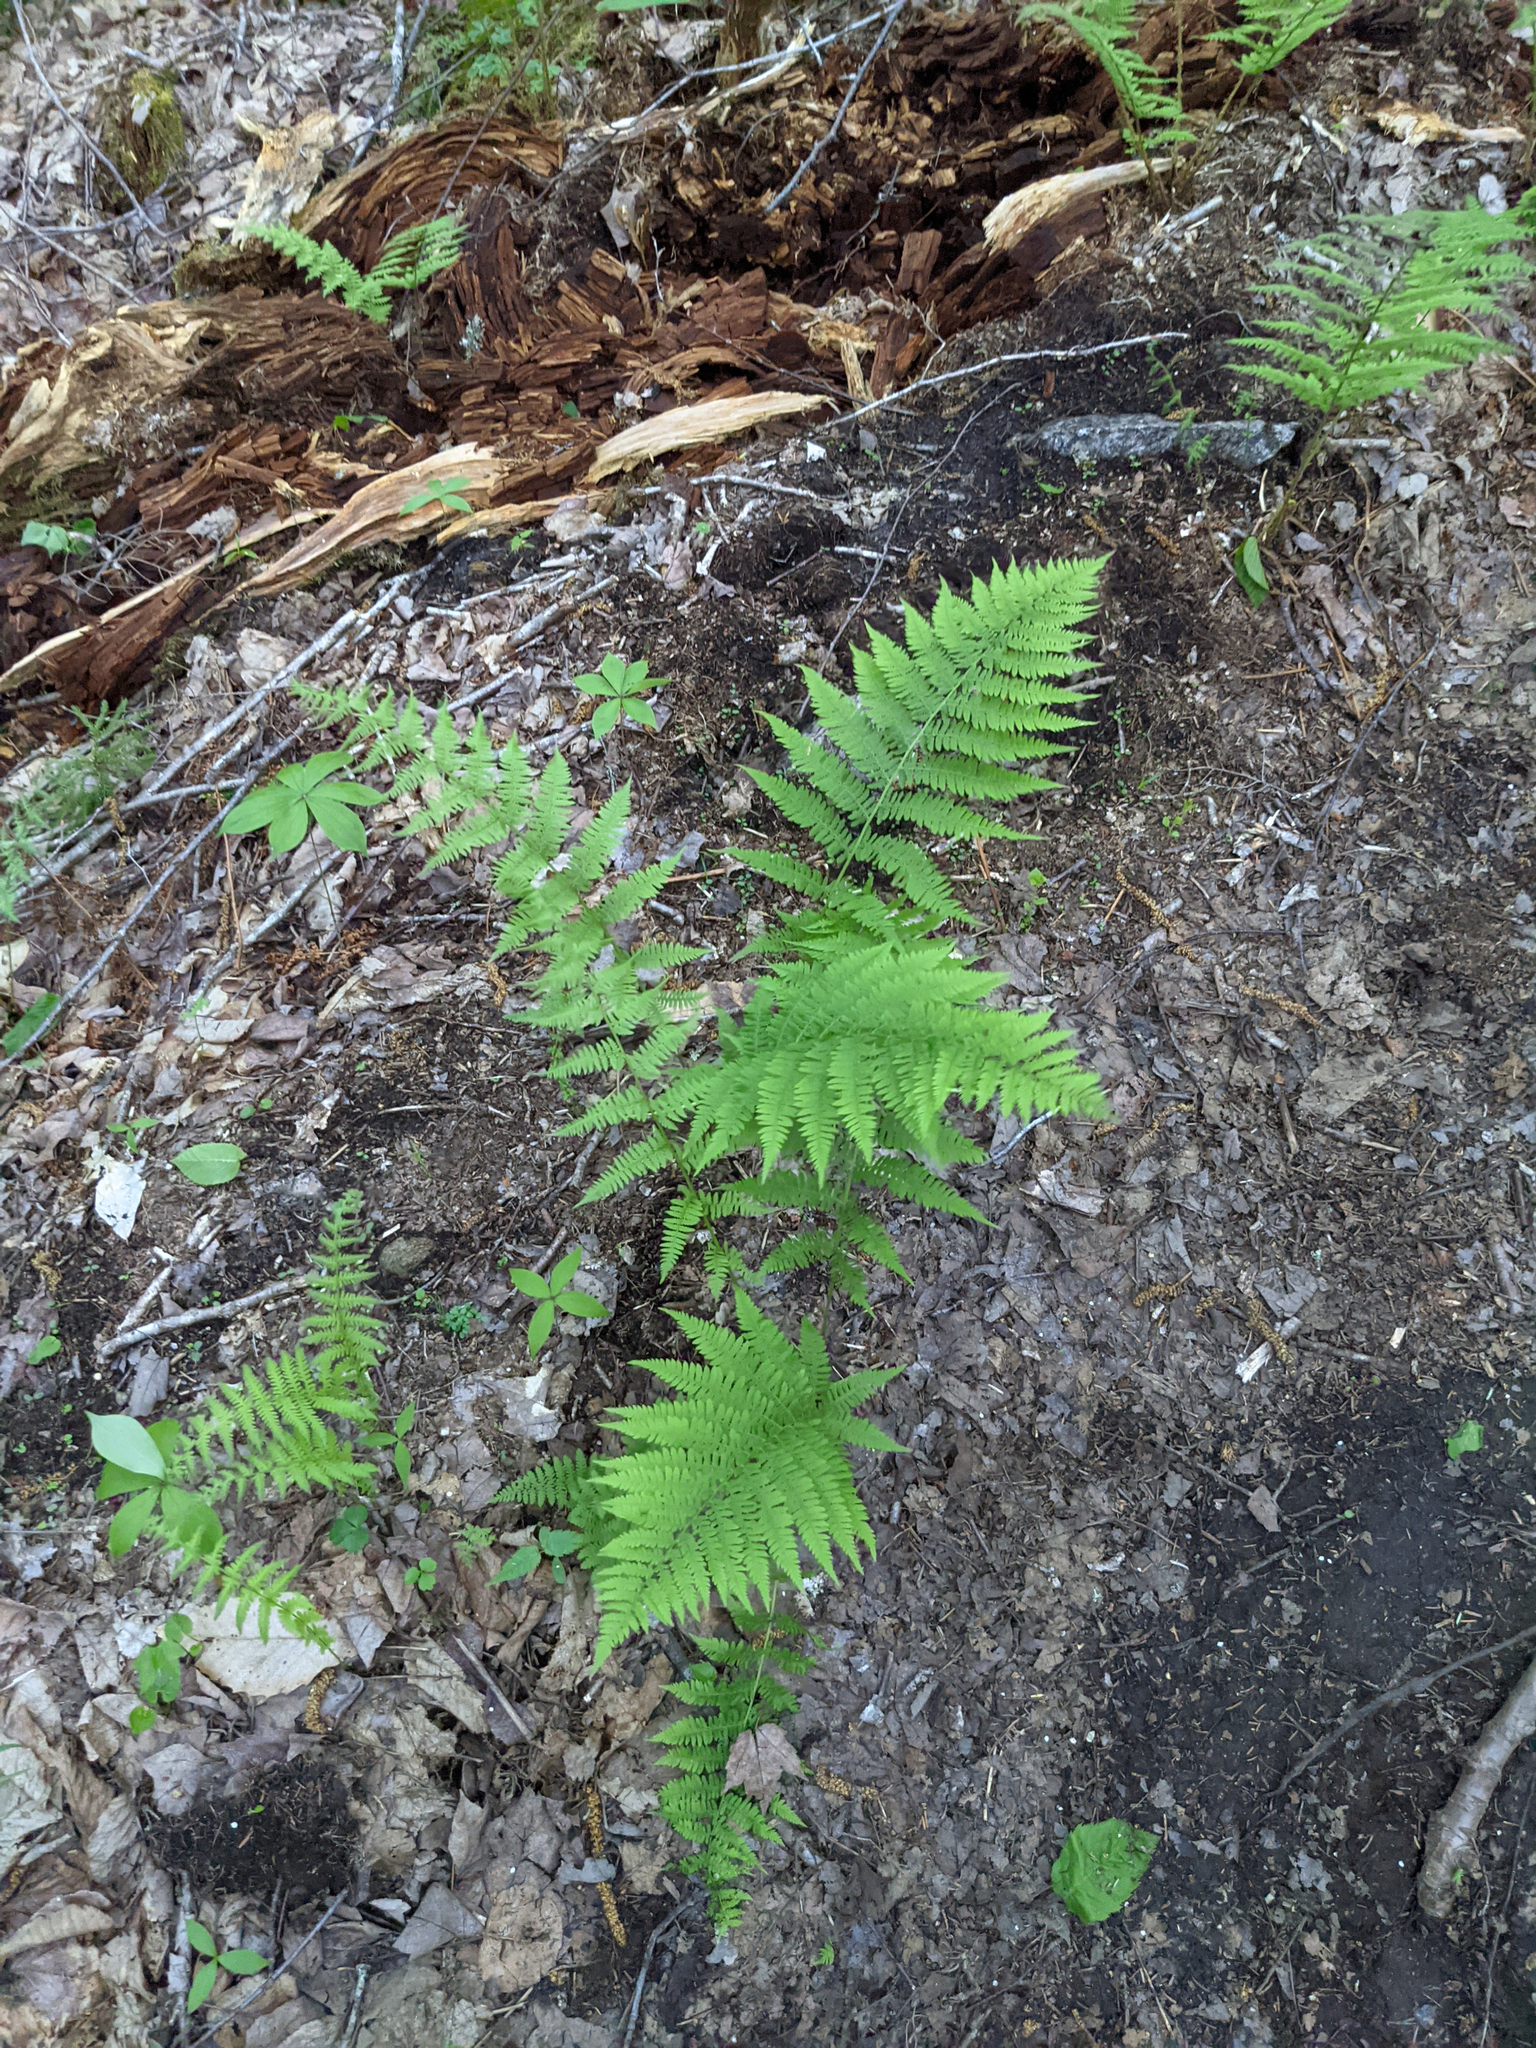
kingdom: Plantae
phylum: Tracheophyta
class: Polypodiopsida
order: Polypodiales
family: Athyriaceae
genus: Athyrium
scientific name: Athyrium angustum
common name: Northern lady fern
